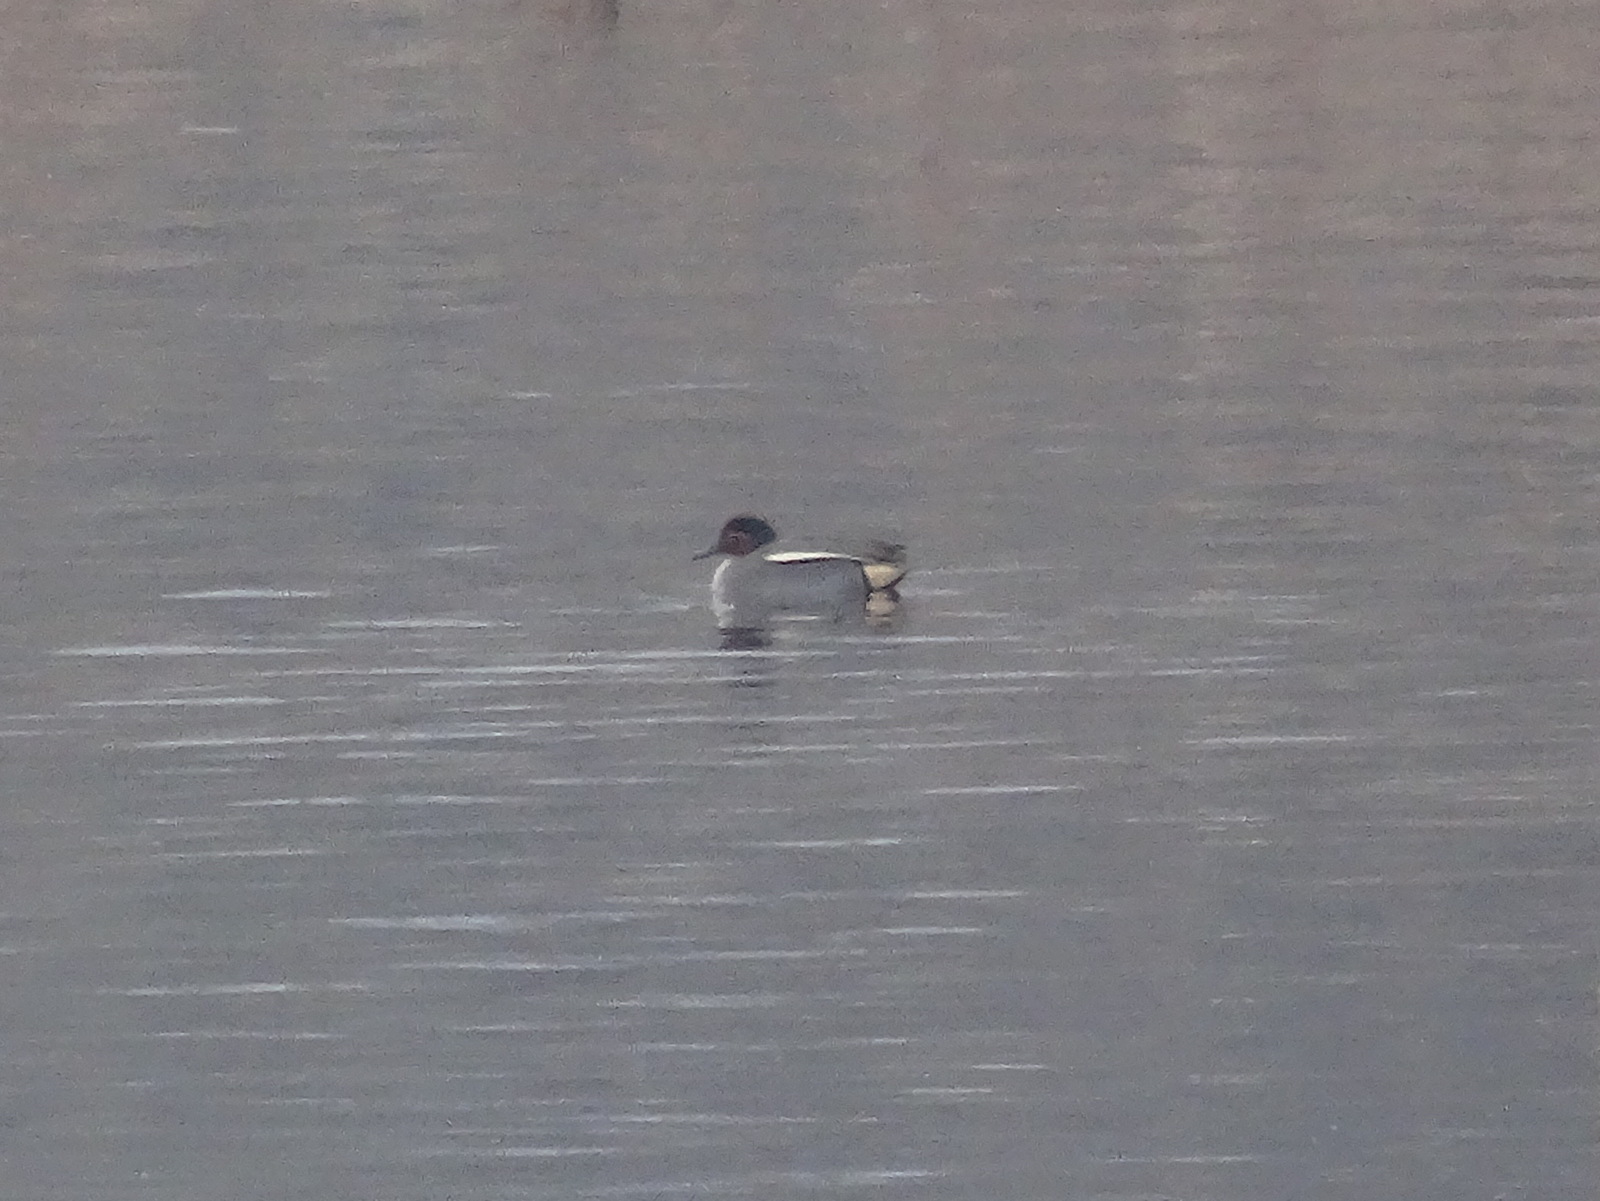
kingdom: Animalia
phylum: Chordata
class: Aves
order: Anseriformes
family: Anatidae
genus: Anas
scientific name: Anas crecca
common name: Eurasian teal
